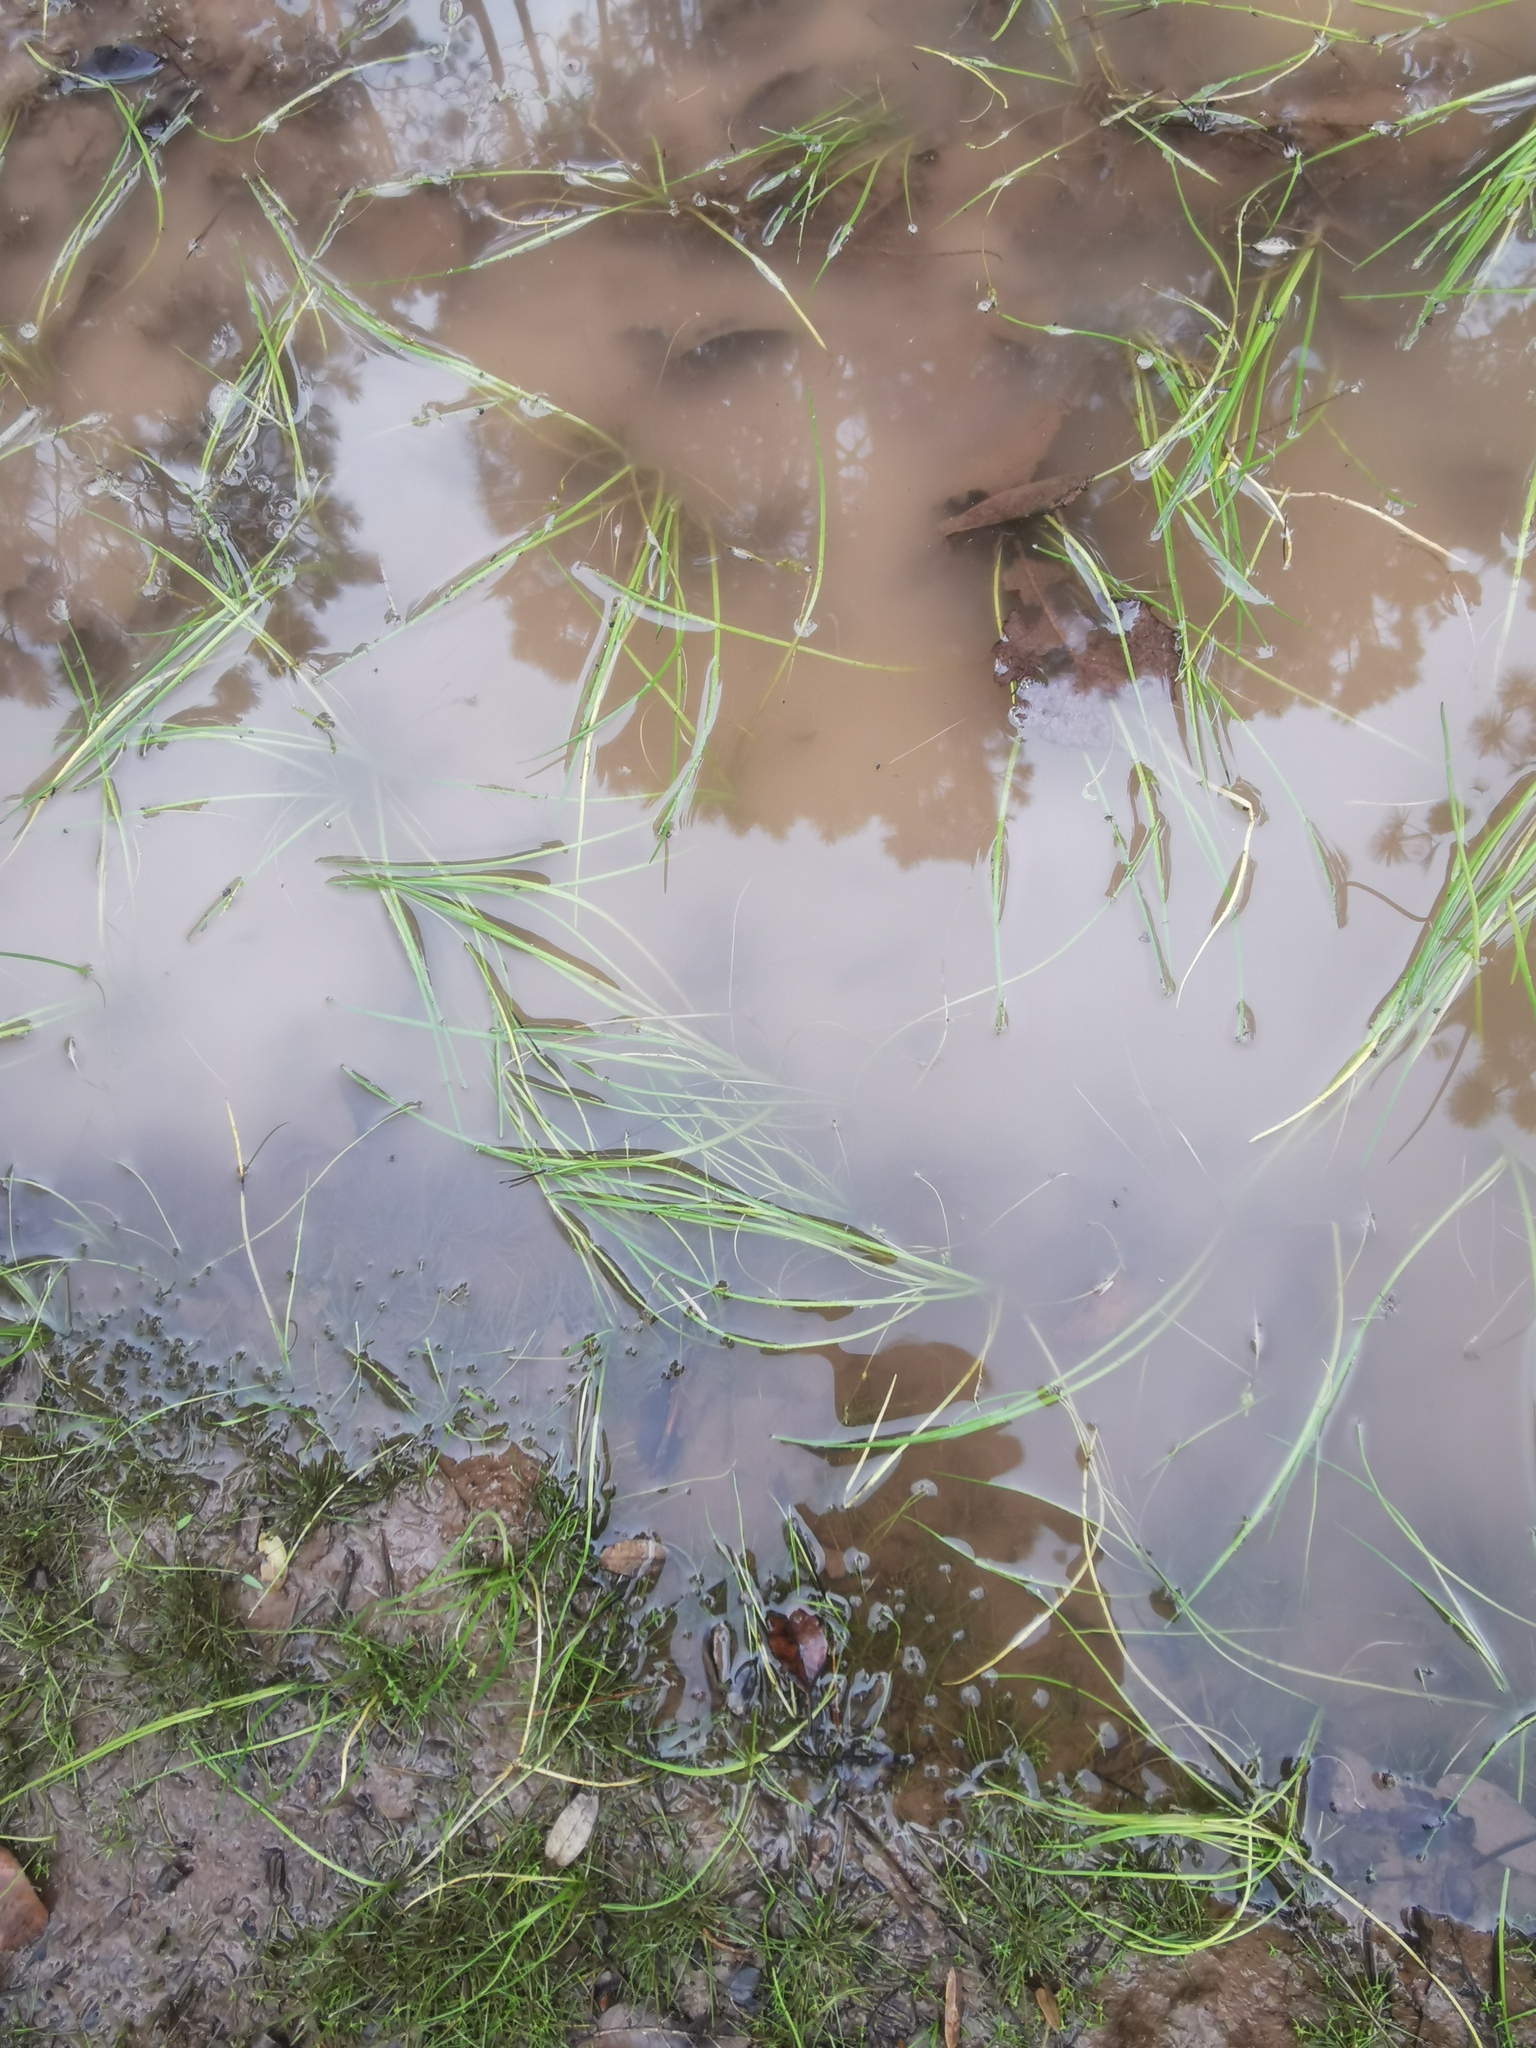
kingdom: Plantae
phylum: Tracheophyta
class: Liliopsida
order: Alismatales
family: Juncaginaceae
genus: Triglochin
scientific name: Triglochin scilloides
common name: Awl-leaved lilaea
